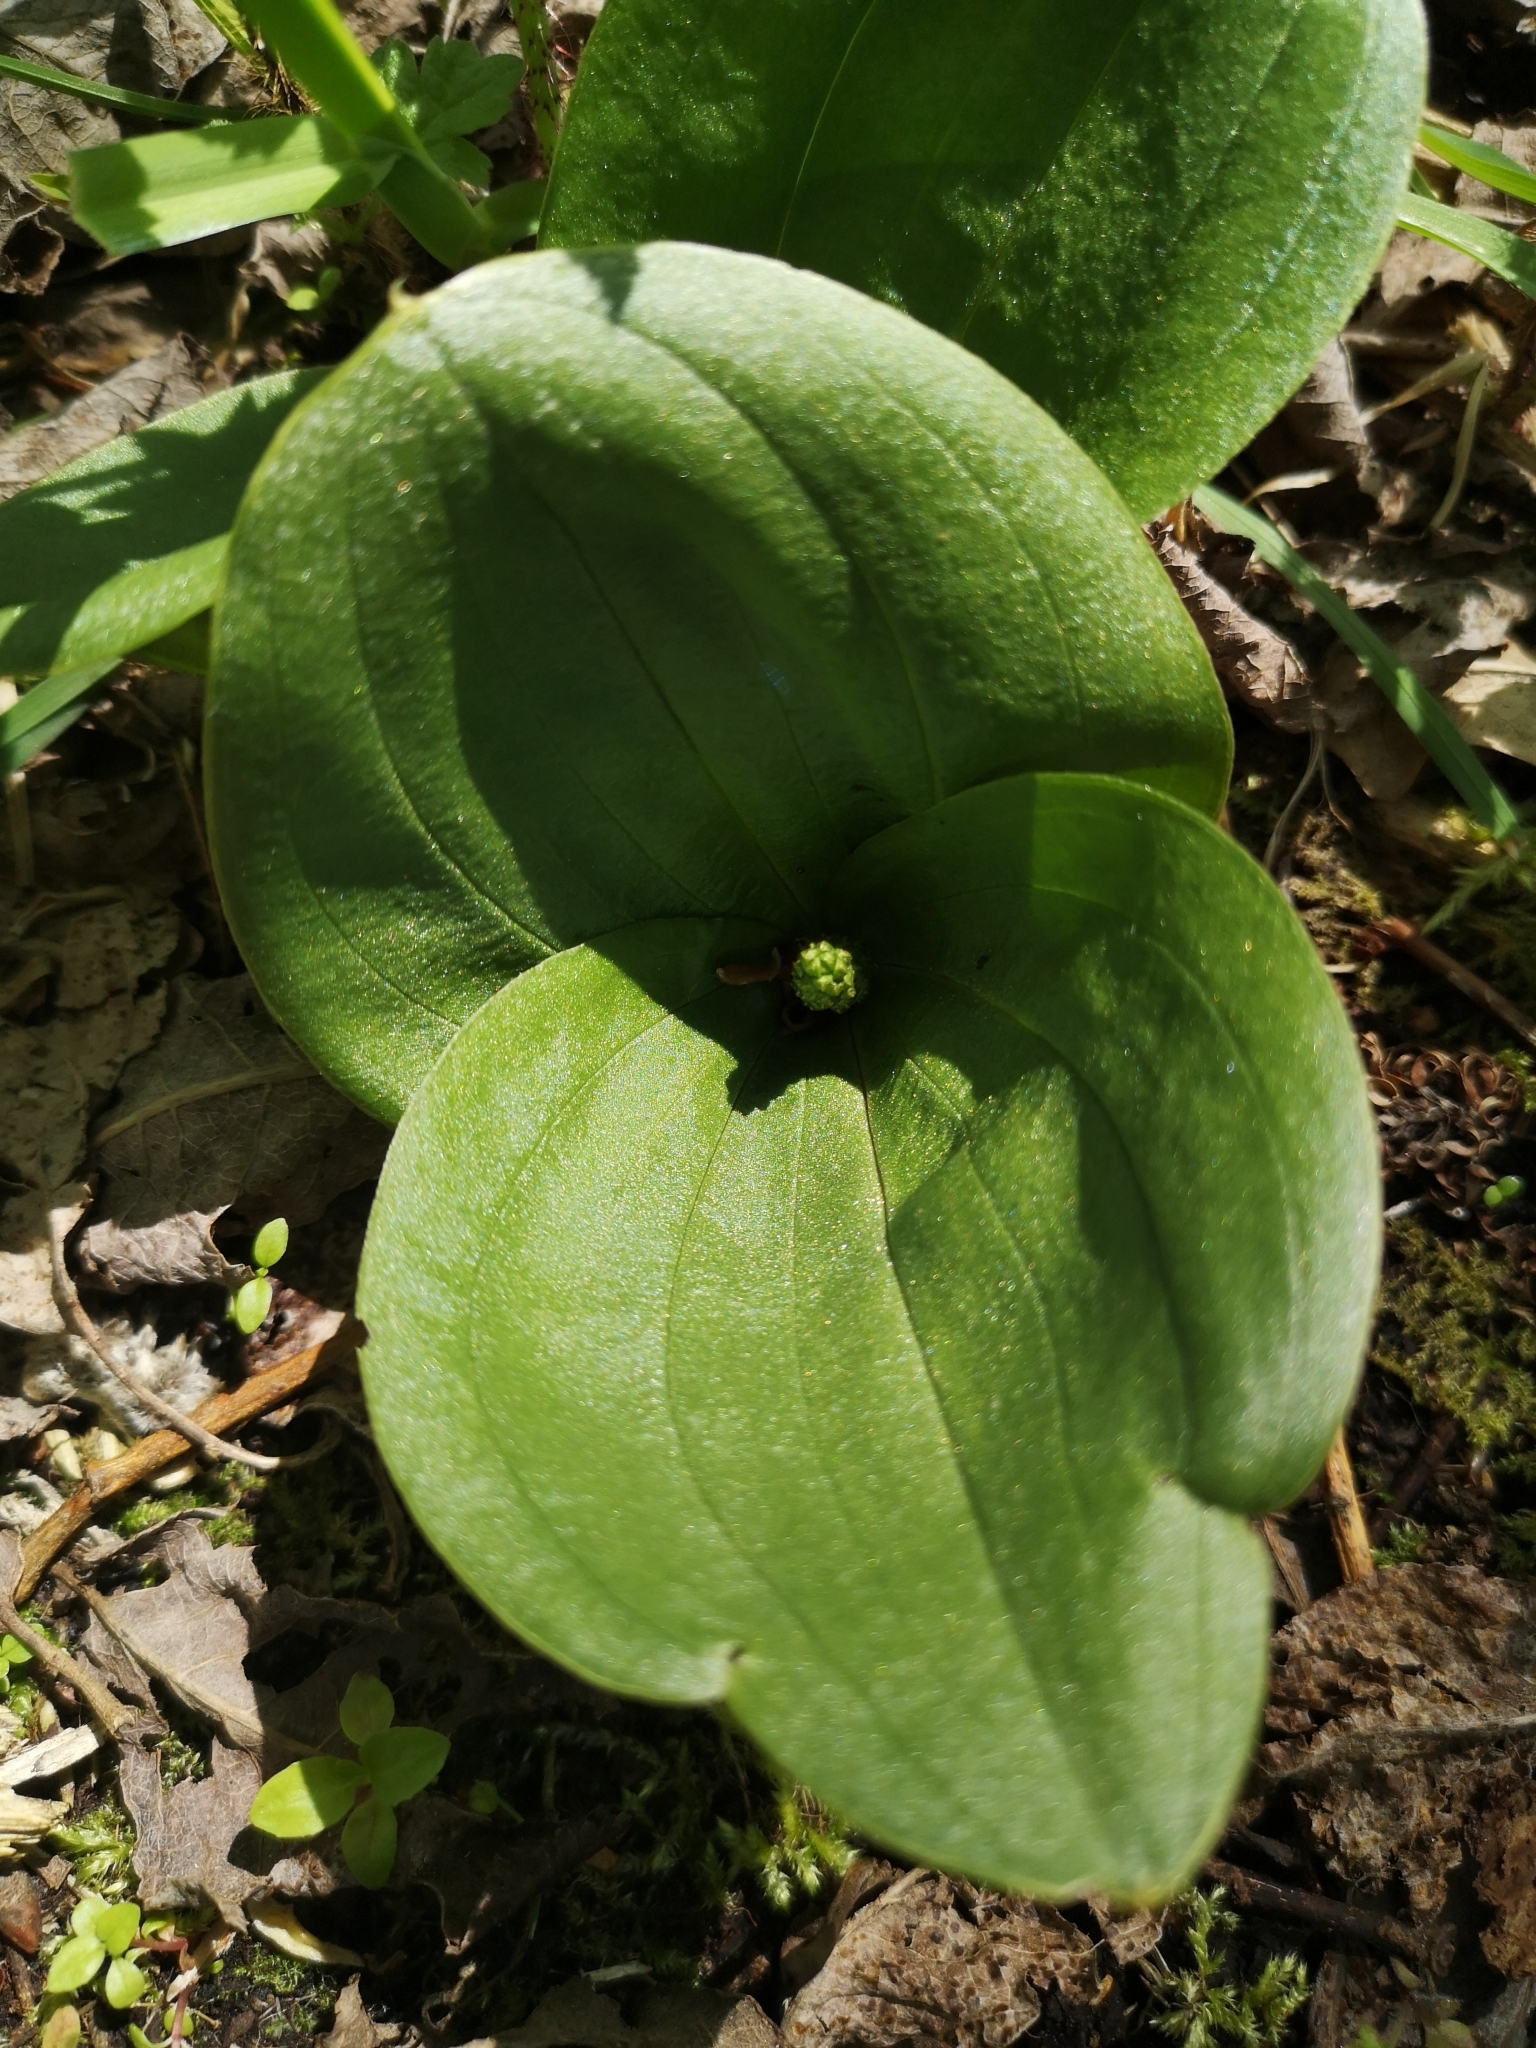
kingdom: Plantae
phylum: Tracheophyta
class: Liliopsida
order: Asparagales
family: Orchidaceae
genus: Neottia
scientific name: Neottia ovata
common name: Common twayblade
